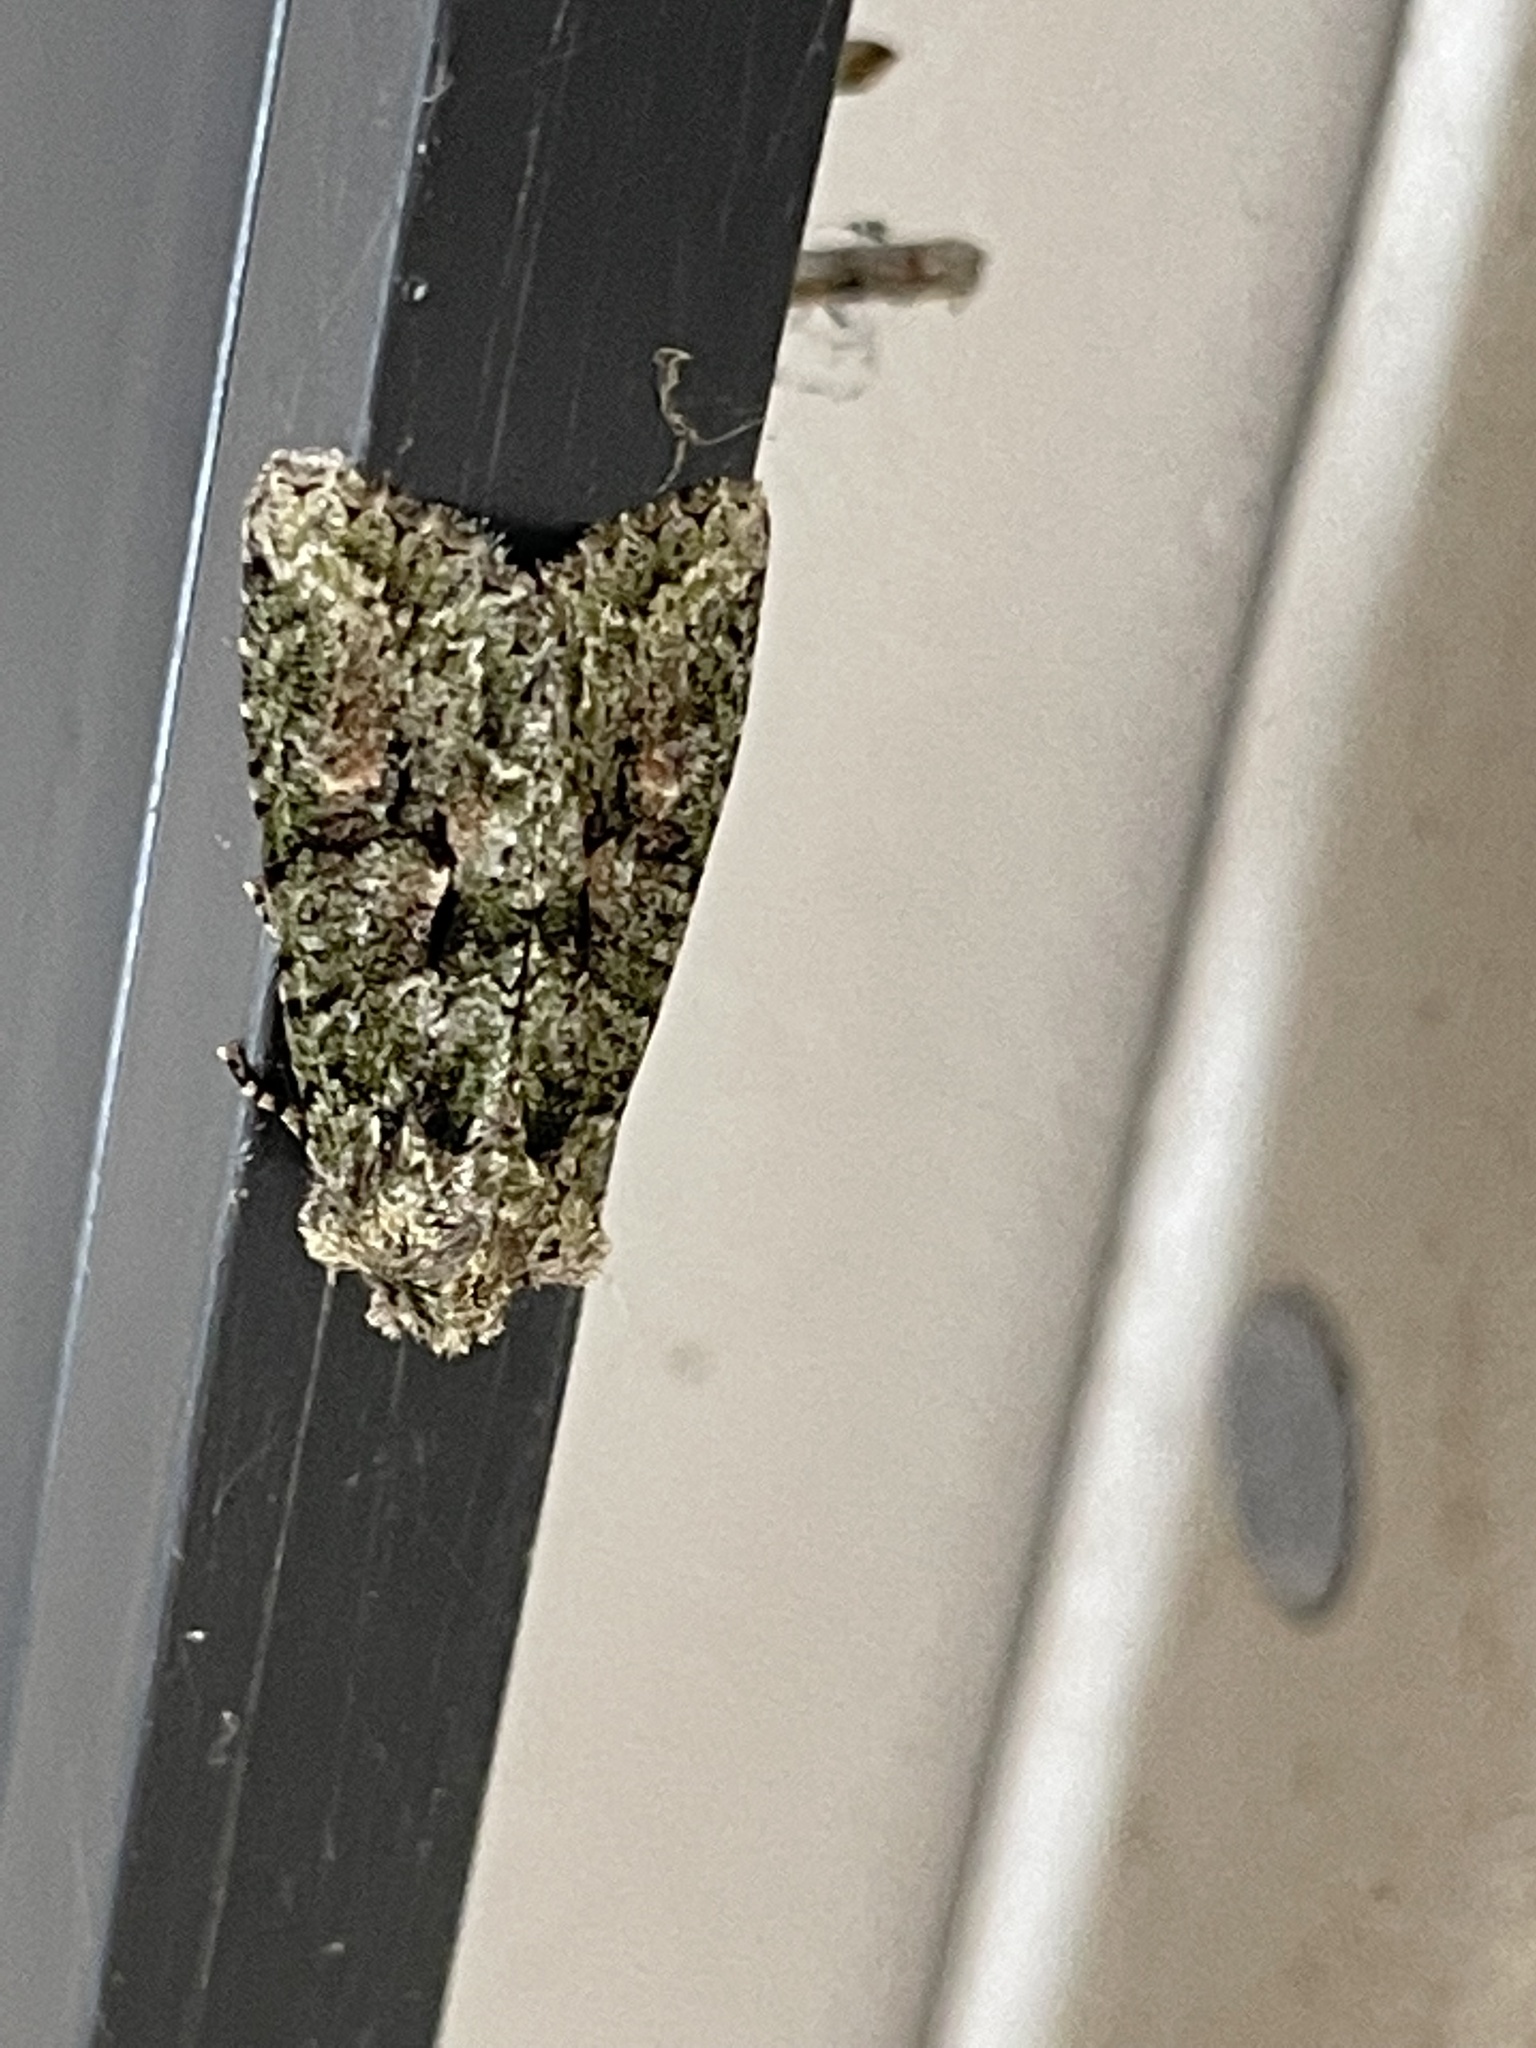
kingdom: Animalia
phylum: Arthropoda
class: Insecta
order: Lepidoptera
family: Noctuidae
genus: Dryobotodes
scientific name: Dryobotodes eremita
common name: Brindled green
